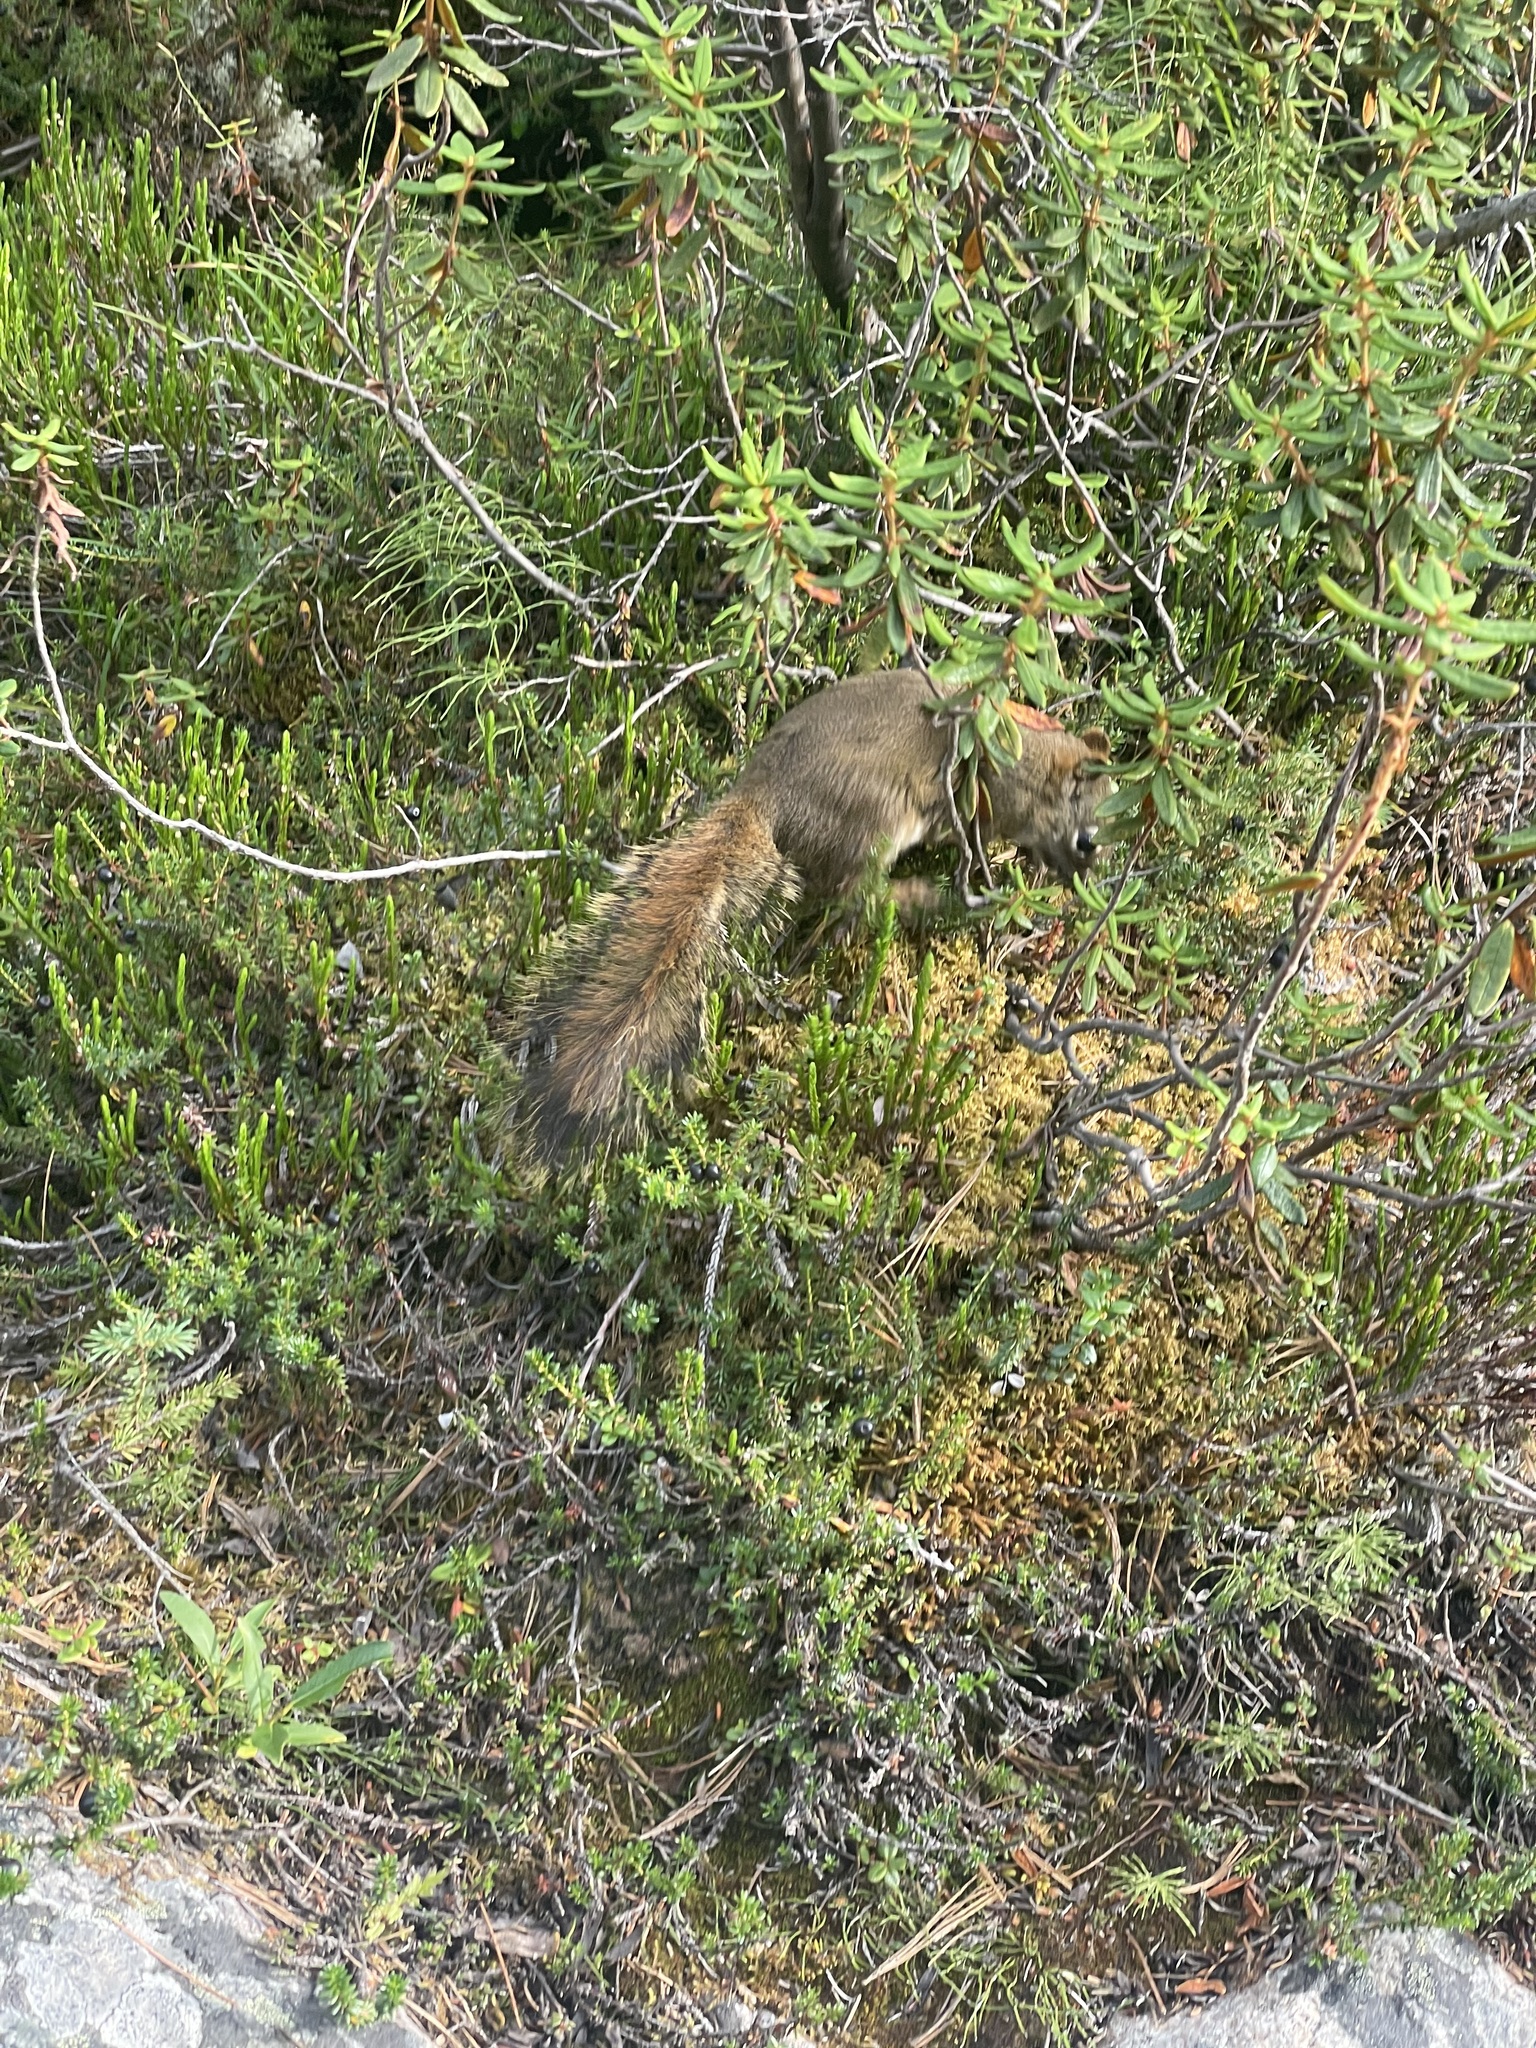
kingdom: Animalia
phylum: Chordata
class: Mammalia
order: Rodentia
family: Sciuridae
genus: Tamiasciurus
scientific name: Tamiasciurus hudsonicus
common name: Red squirrel
